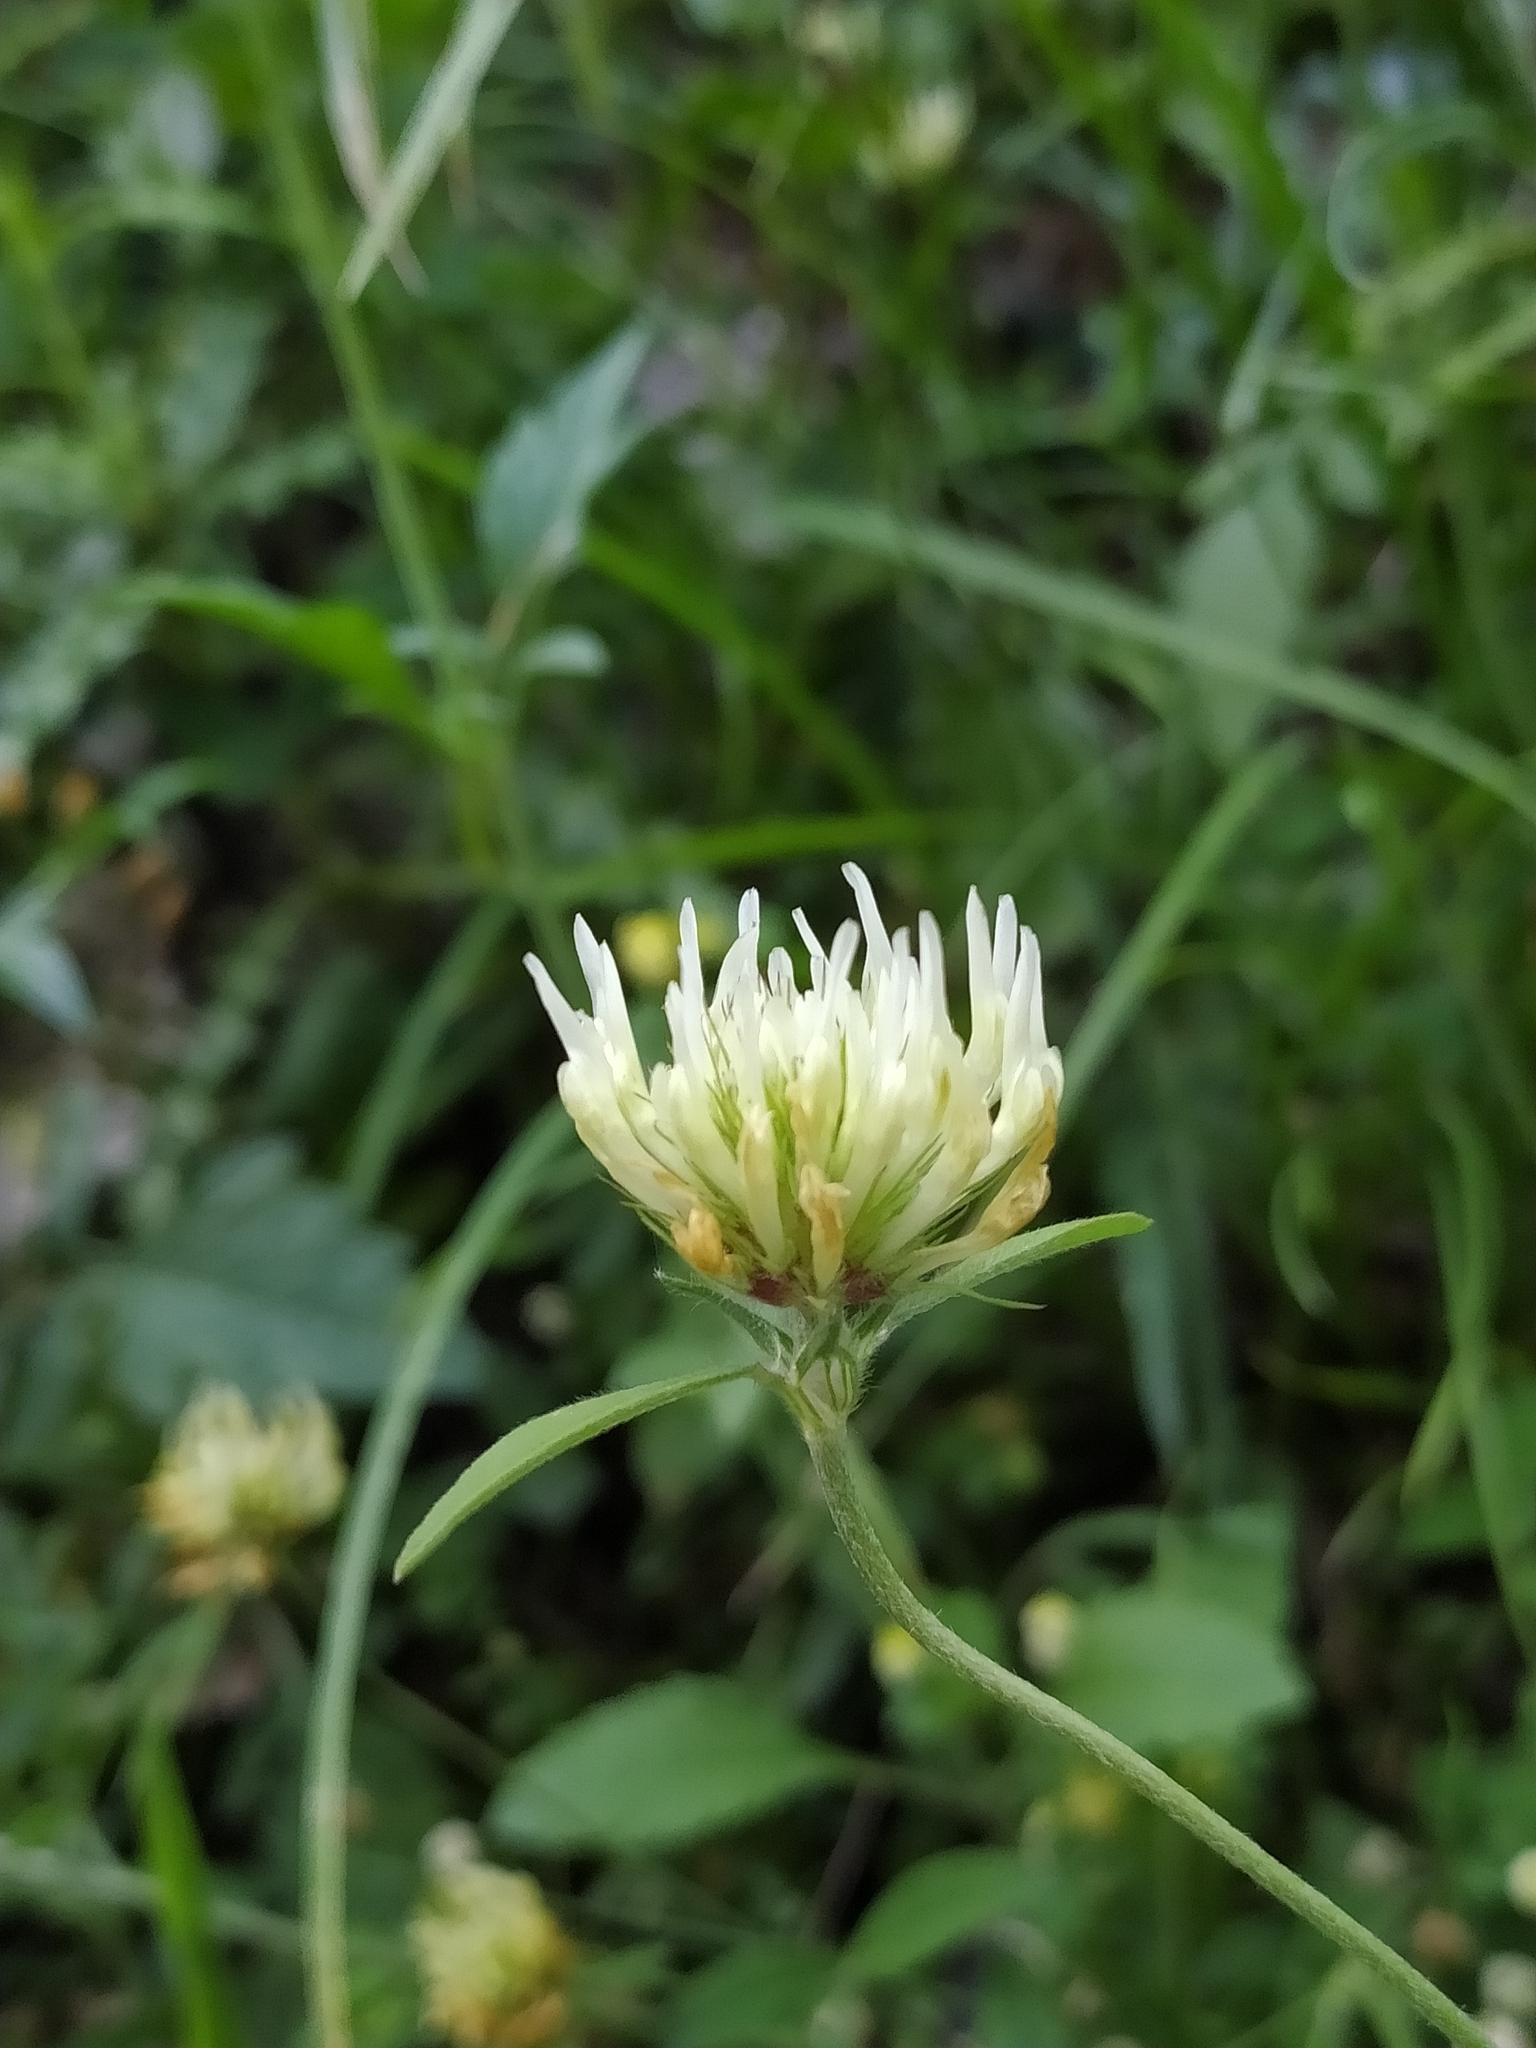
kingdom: Plantae
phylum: Tracheophyta
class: Magnoliopsida
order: Fabales
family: Fabaceae
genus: Trifolium
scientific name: Trifolium ochroleucon
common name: Sulphur clover
